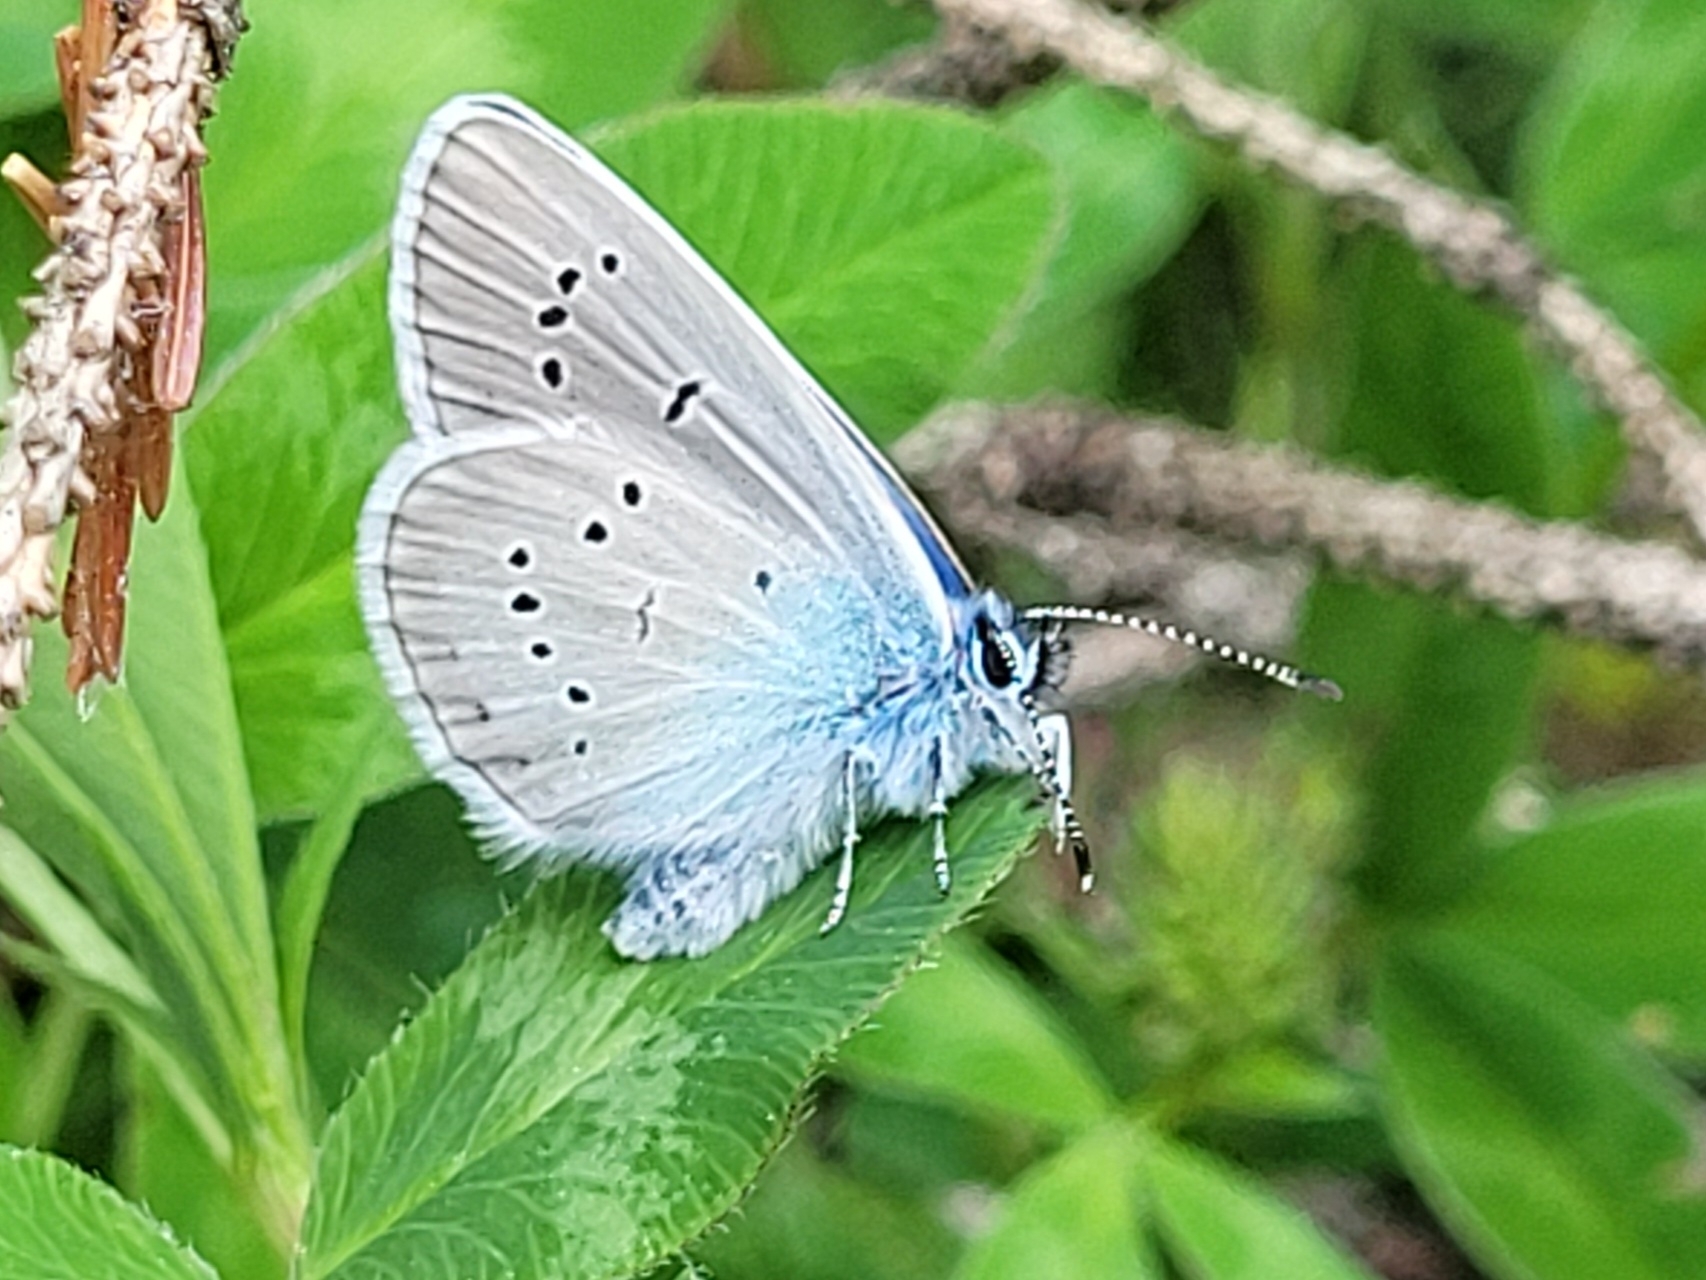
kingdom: Animalia
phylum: Arthropoda
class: Insecta
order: Lepidoptera
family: Lycaenidae
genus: Cyaniris
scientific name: Cyaniris semiargus
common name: Mazarine blue
